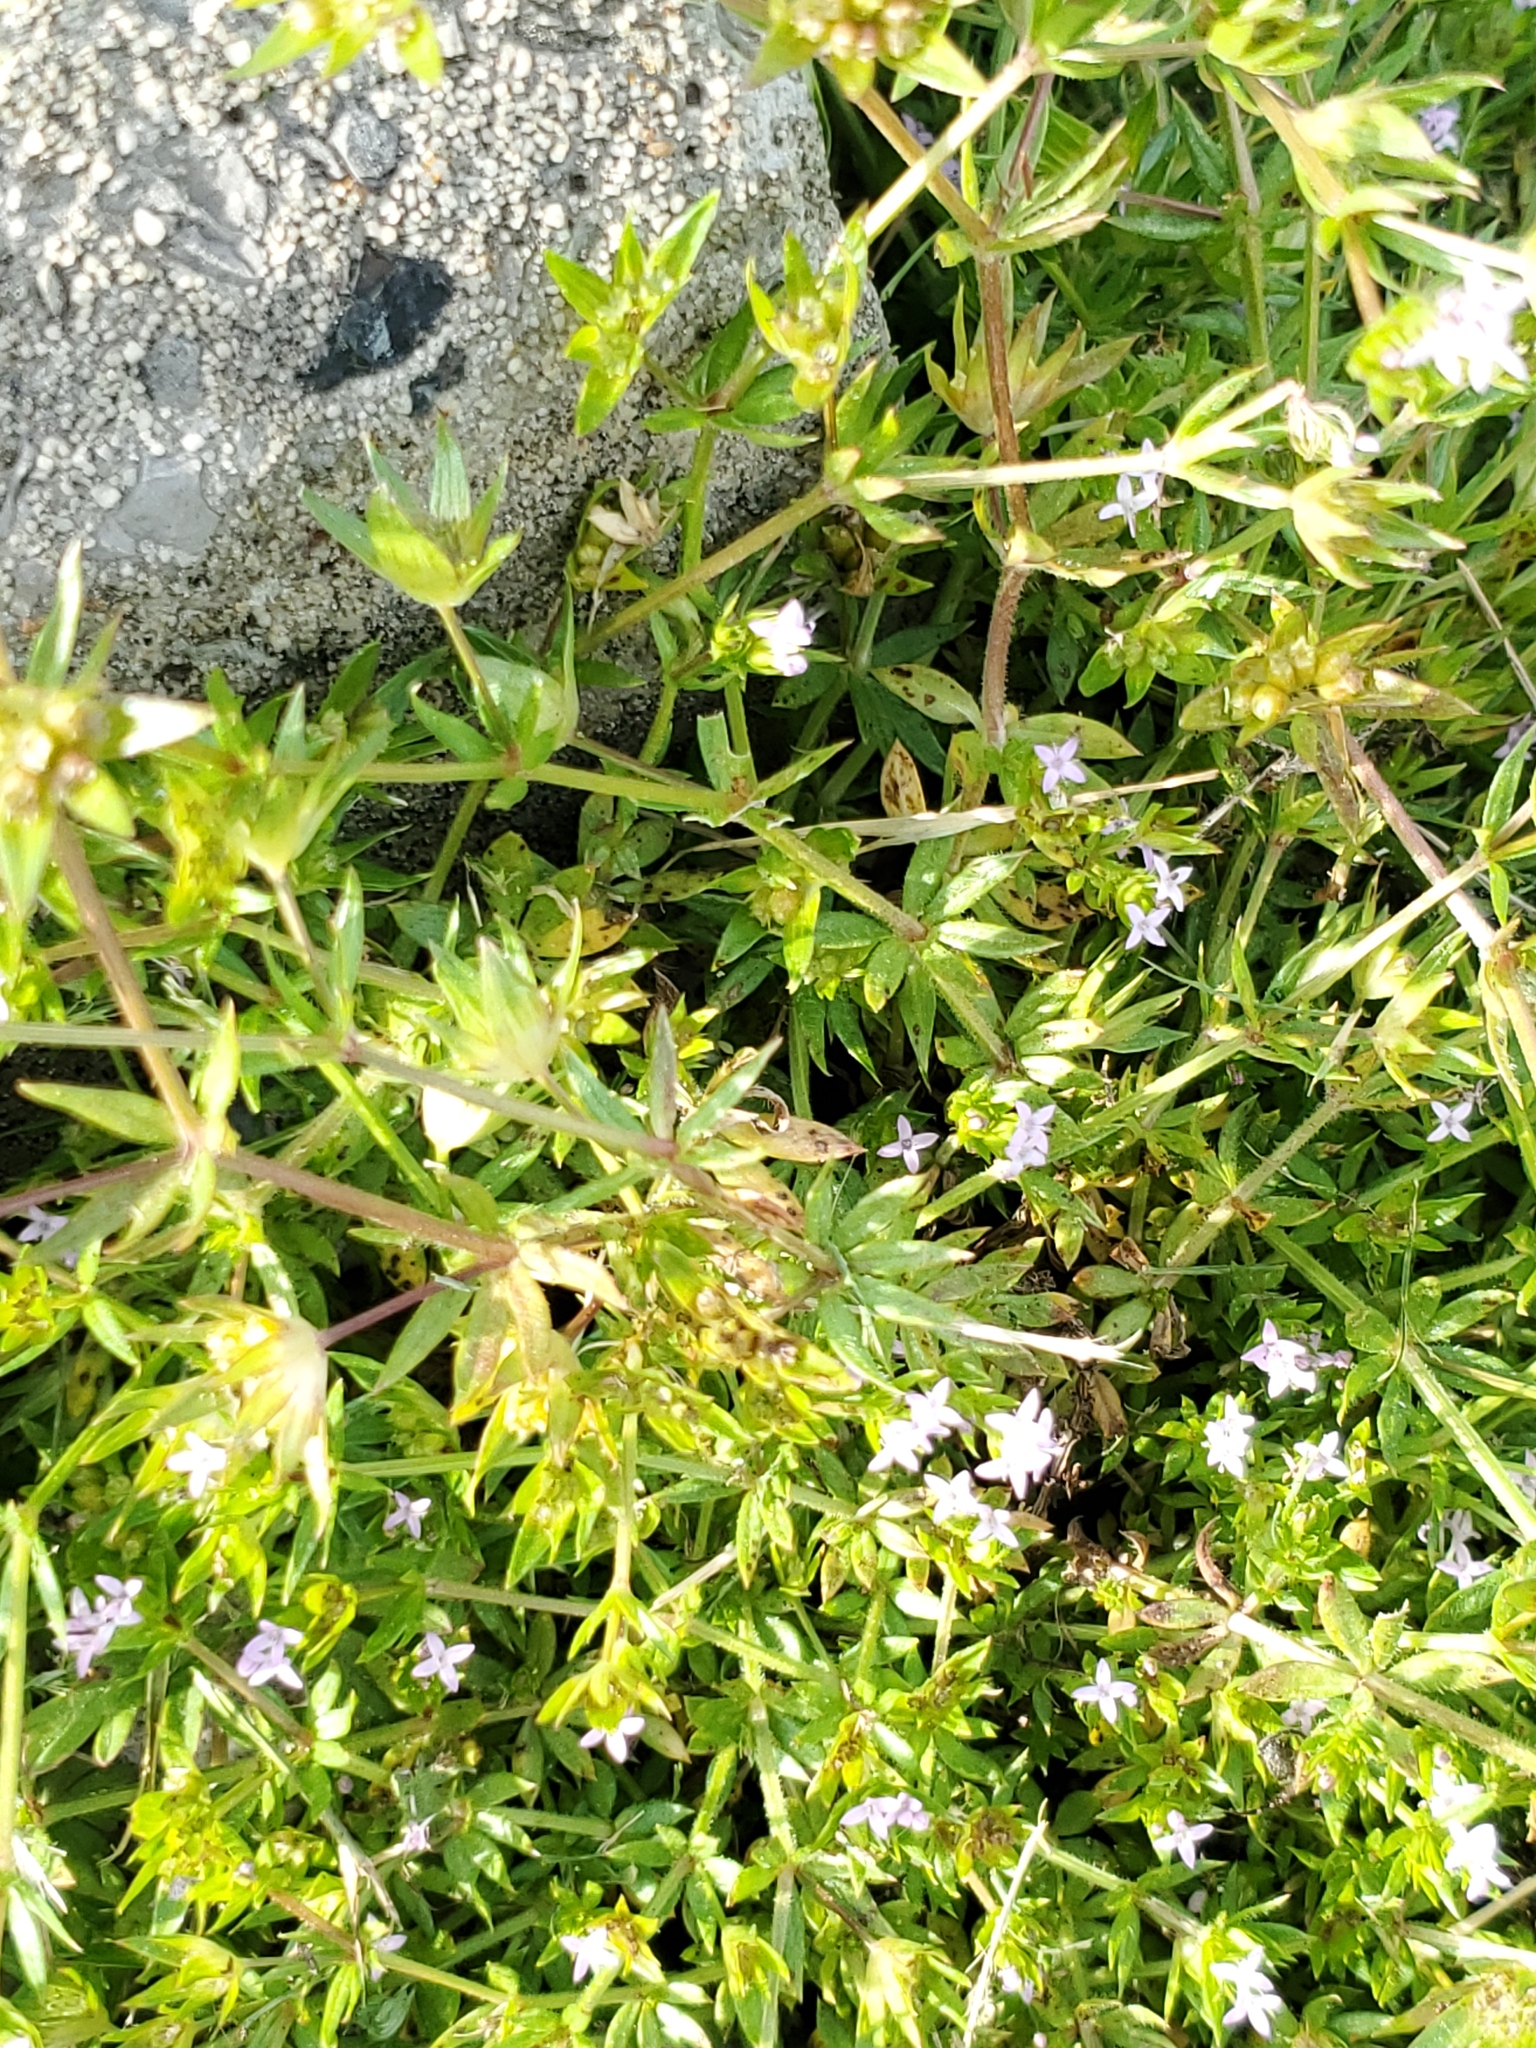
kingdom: Plantae
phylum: Tracheophyta
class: Magnoliopsida
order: Gentianales
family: Rubiaceae
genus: Sherardia
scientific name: Sherardia arvensis
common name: Field madder
